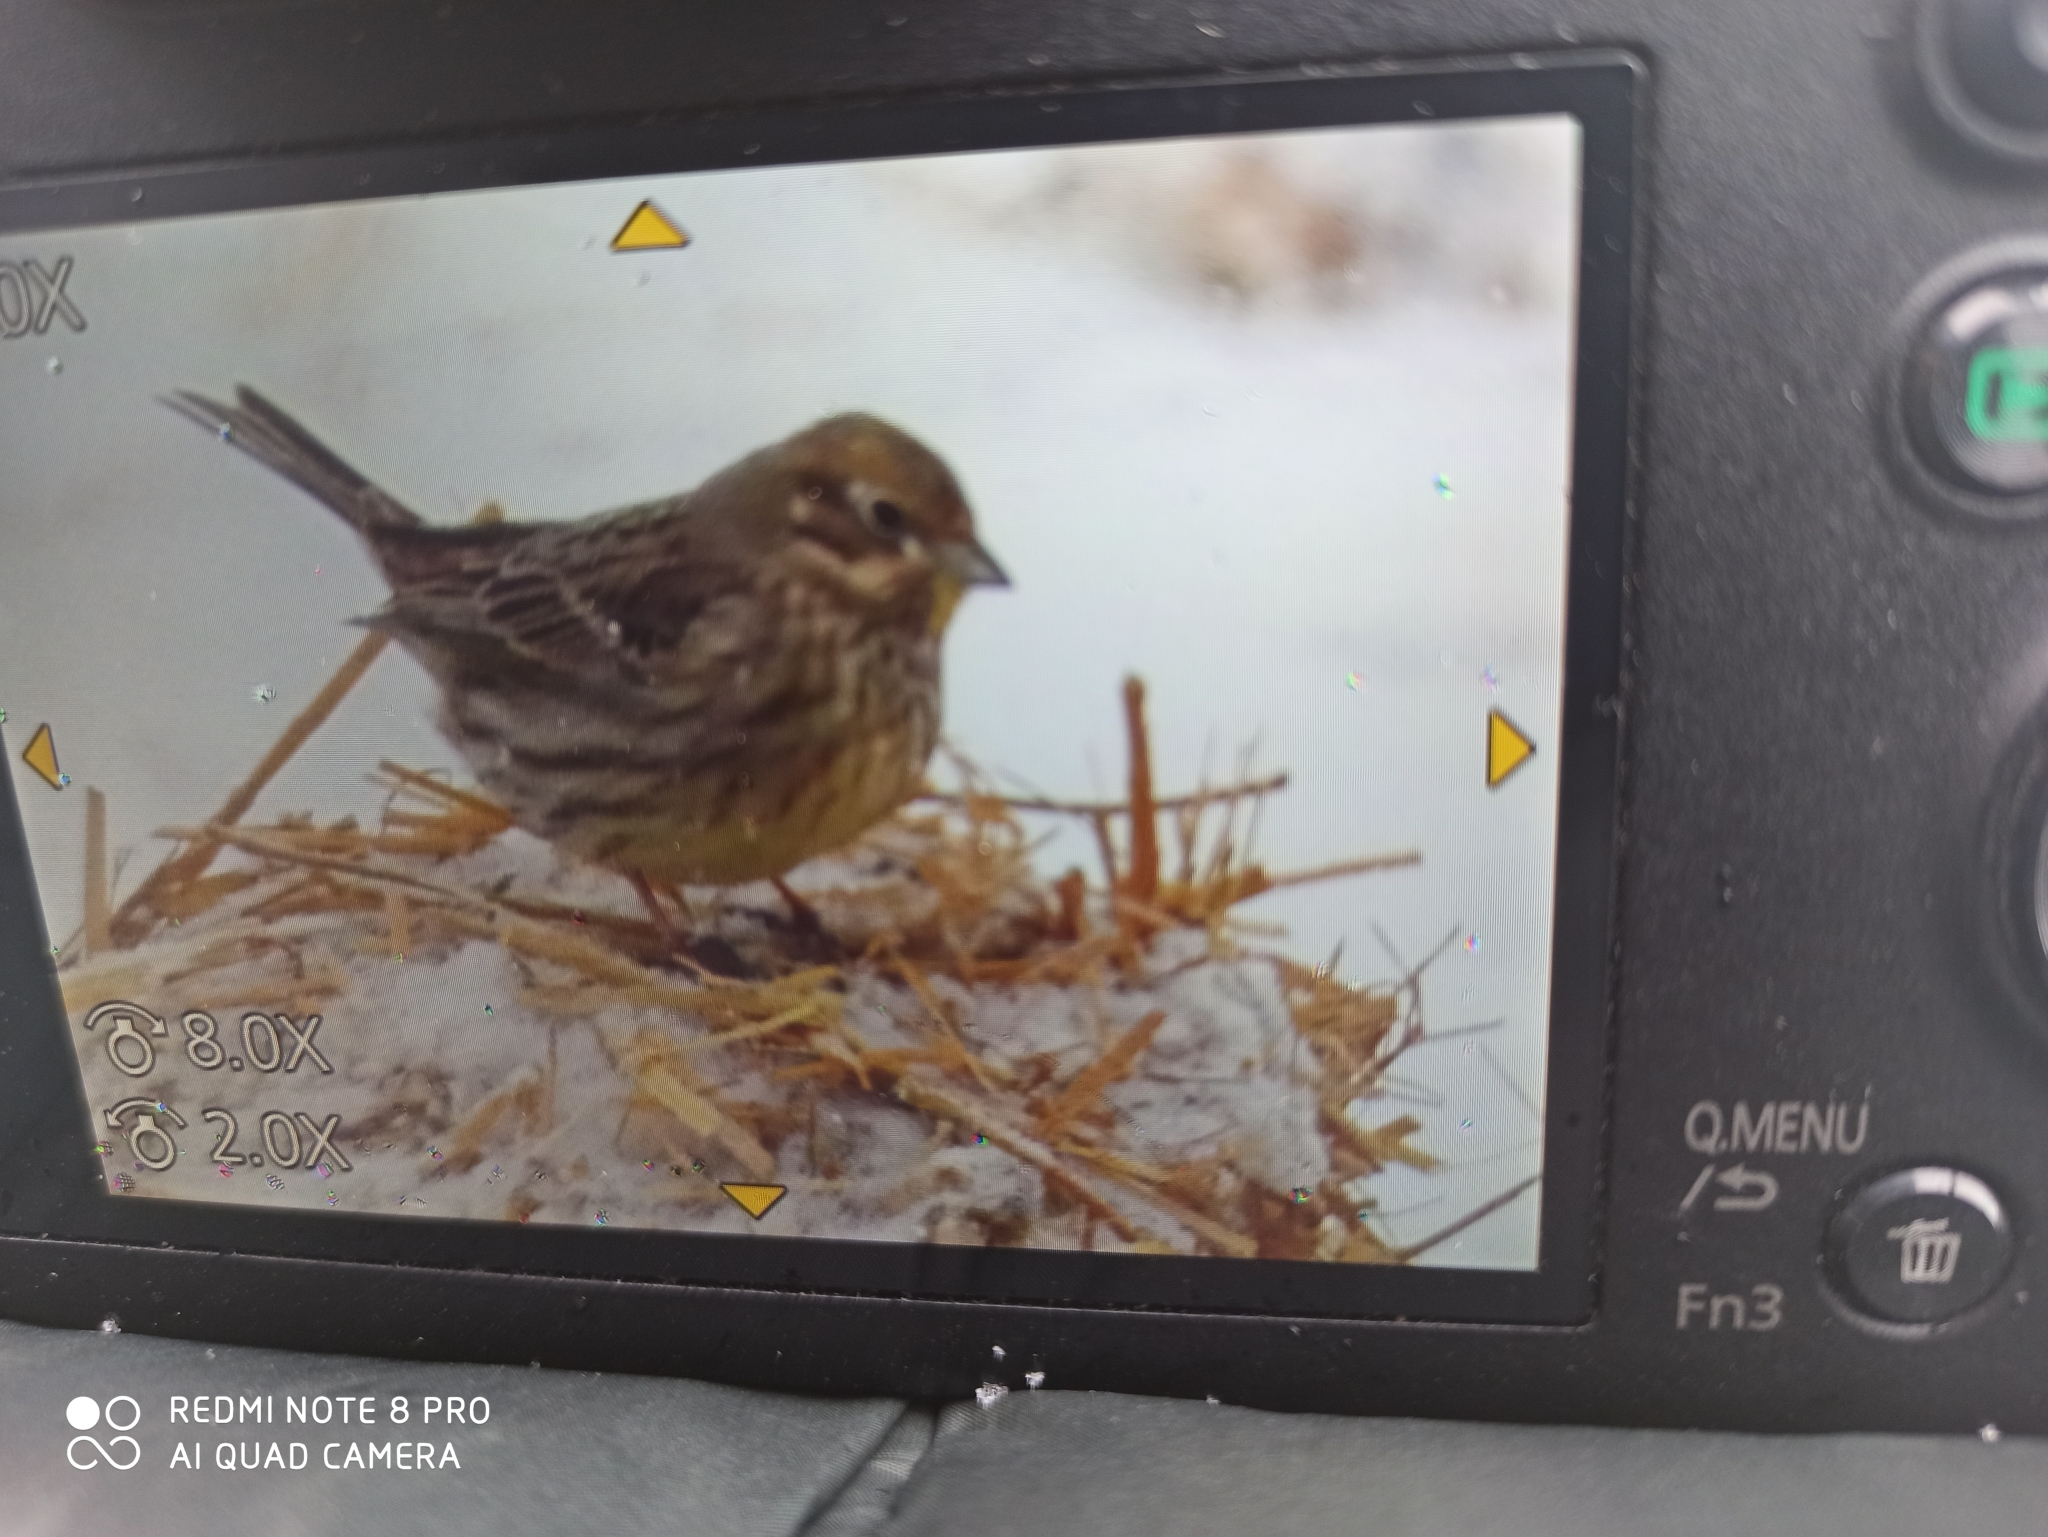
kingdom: Animalia
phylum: Chordata
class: Aves
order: Passeriformes
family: Emberizidae
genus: Emberiza
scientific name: Emberiza citrinella
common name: Yellowhammer
